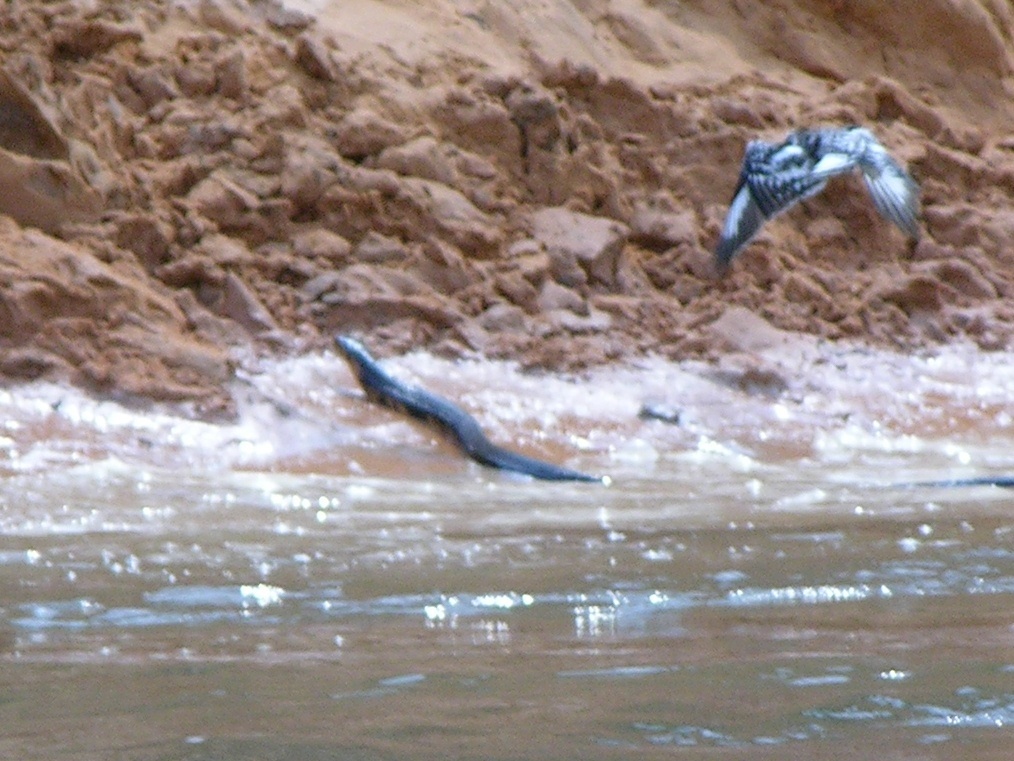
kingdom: Animalia
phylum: Chordata
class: Squamata
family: Elapidae
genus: Naja
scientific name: Naja melanoleuca
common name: Central africa forest cobra
